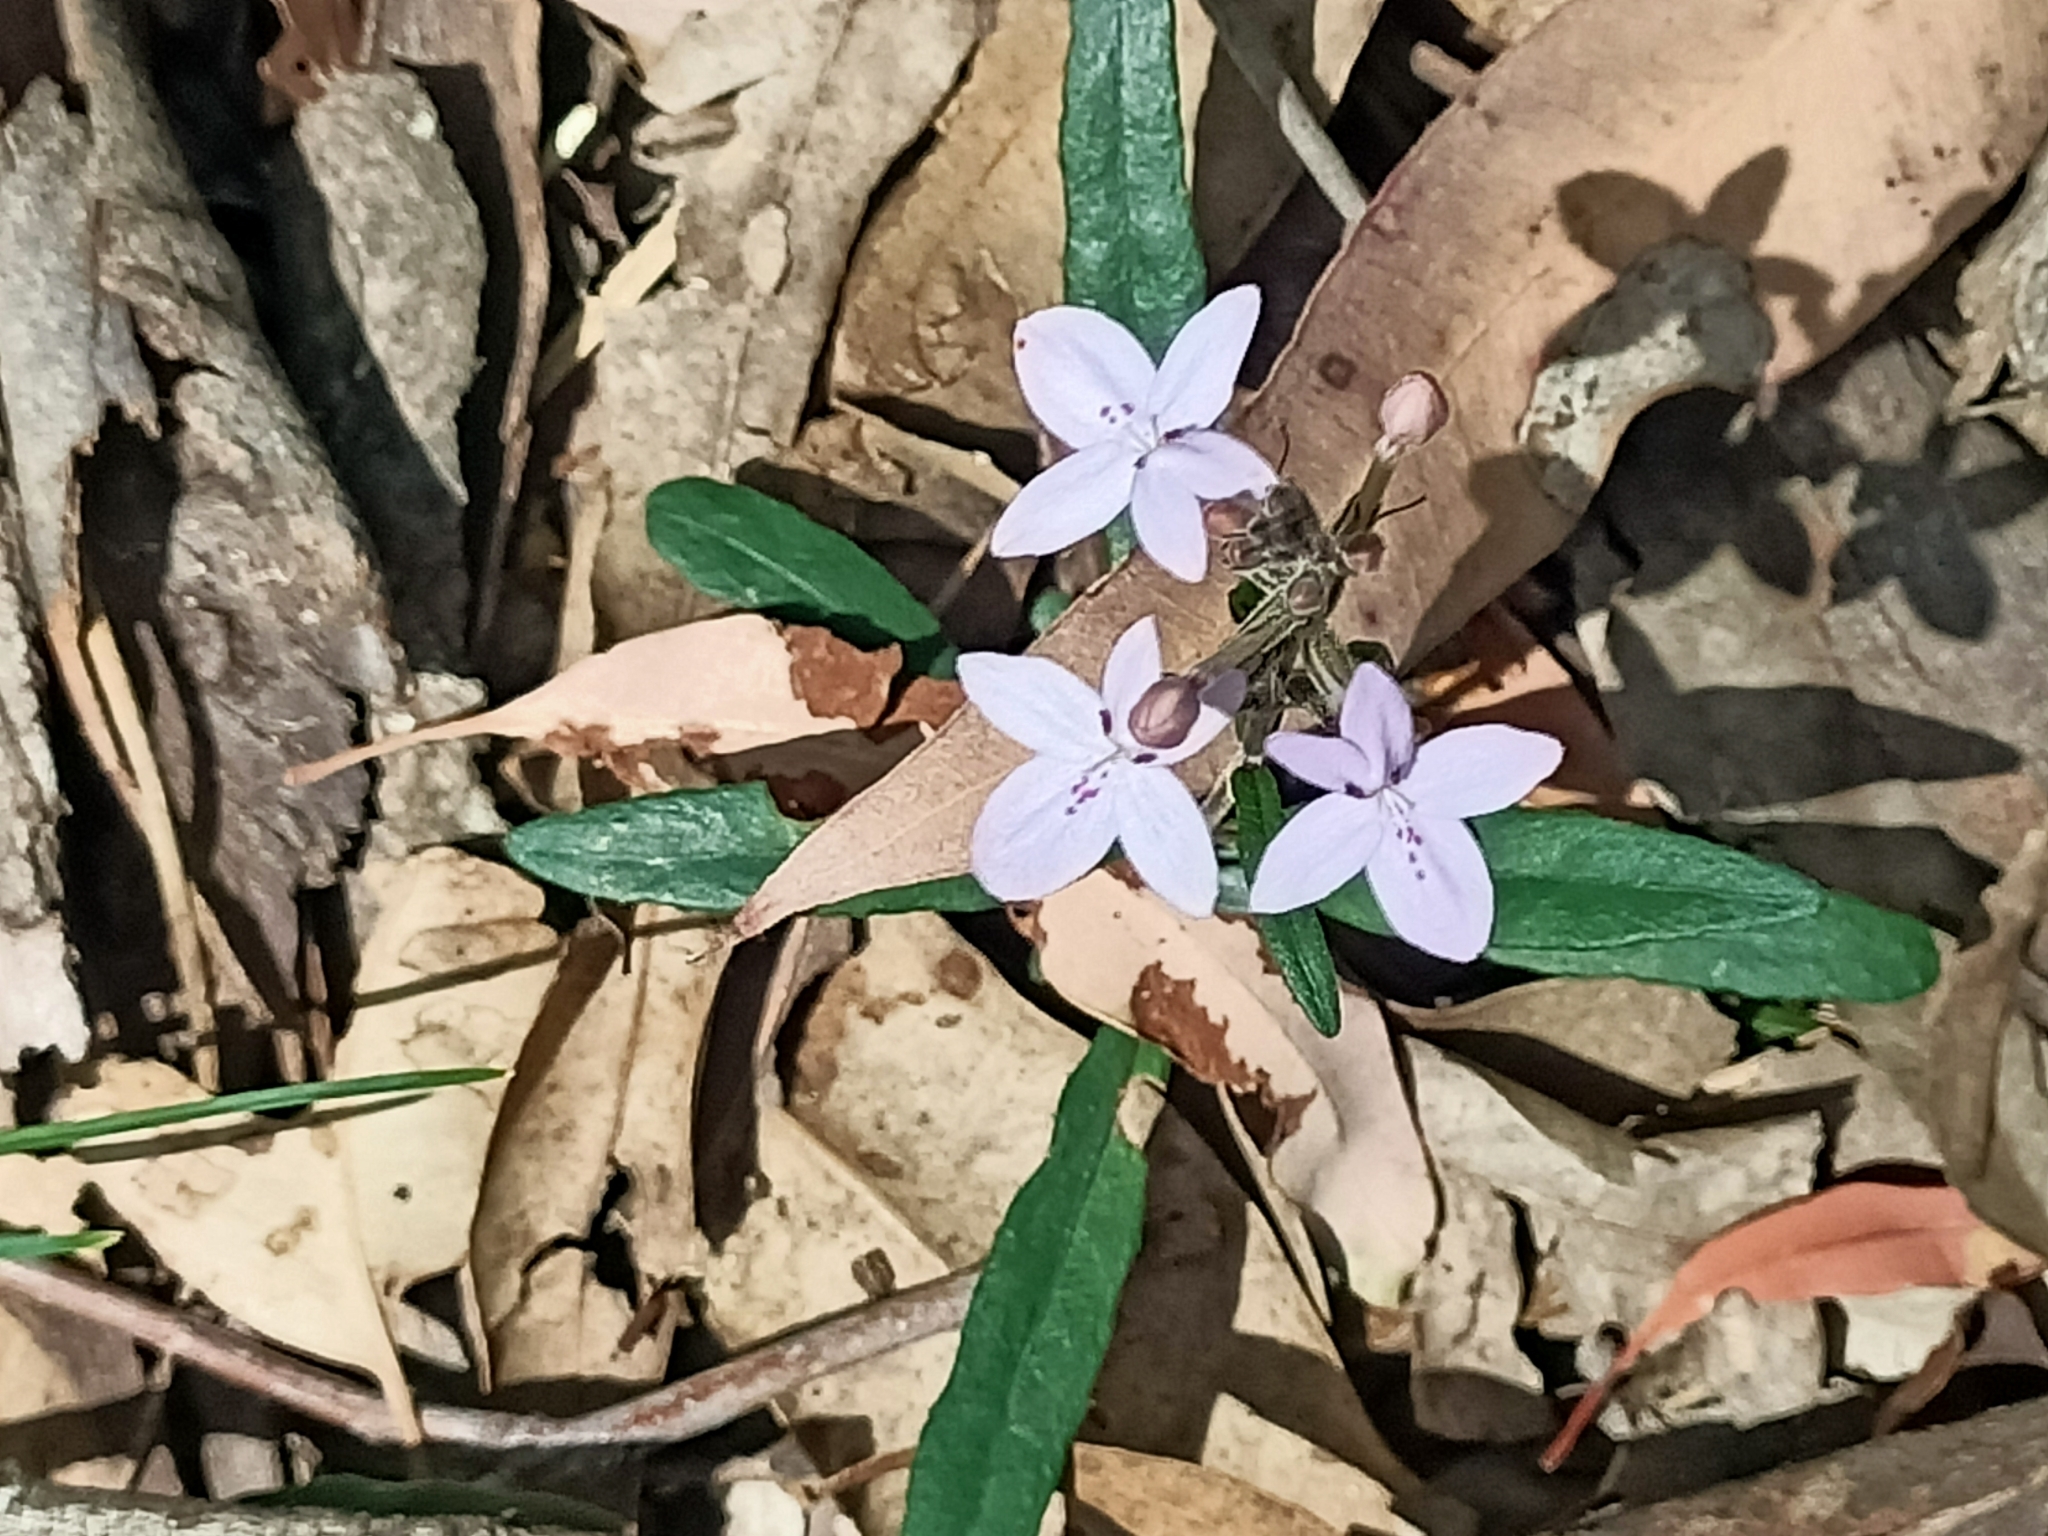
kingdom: Plantae
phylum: Tracheophyta
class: Magnoliopsida
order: Lamiales
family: Acanthaceae
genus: Pseuderanthemum
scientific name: Pseuderanthemum variabile
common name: Night and afternoon
